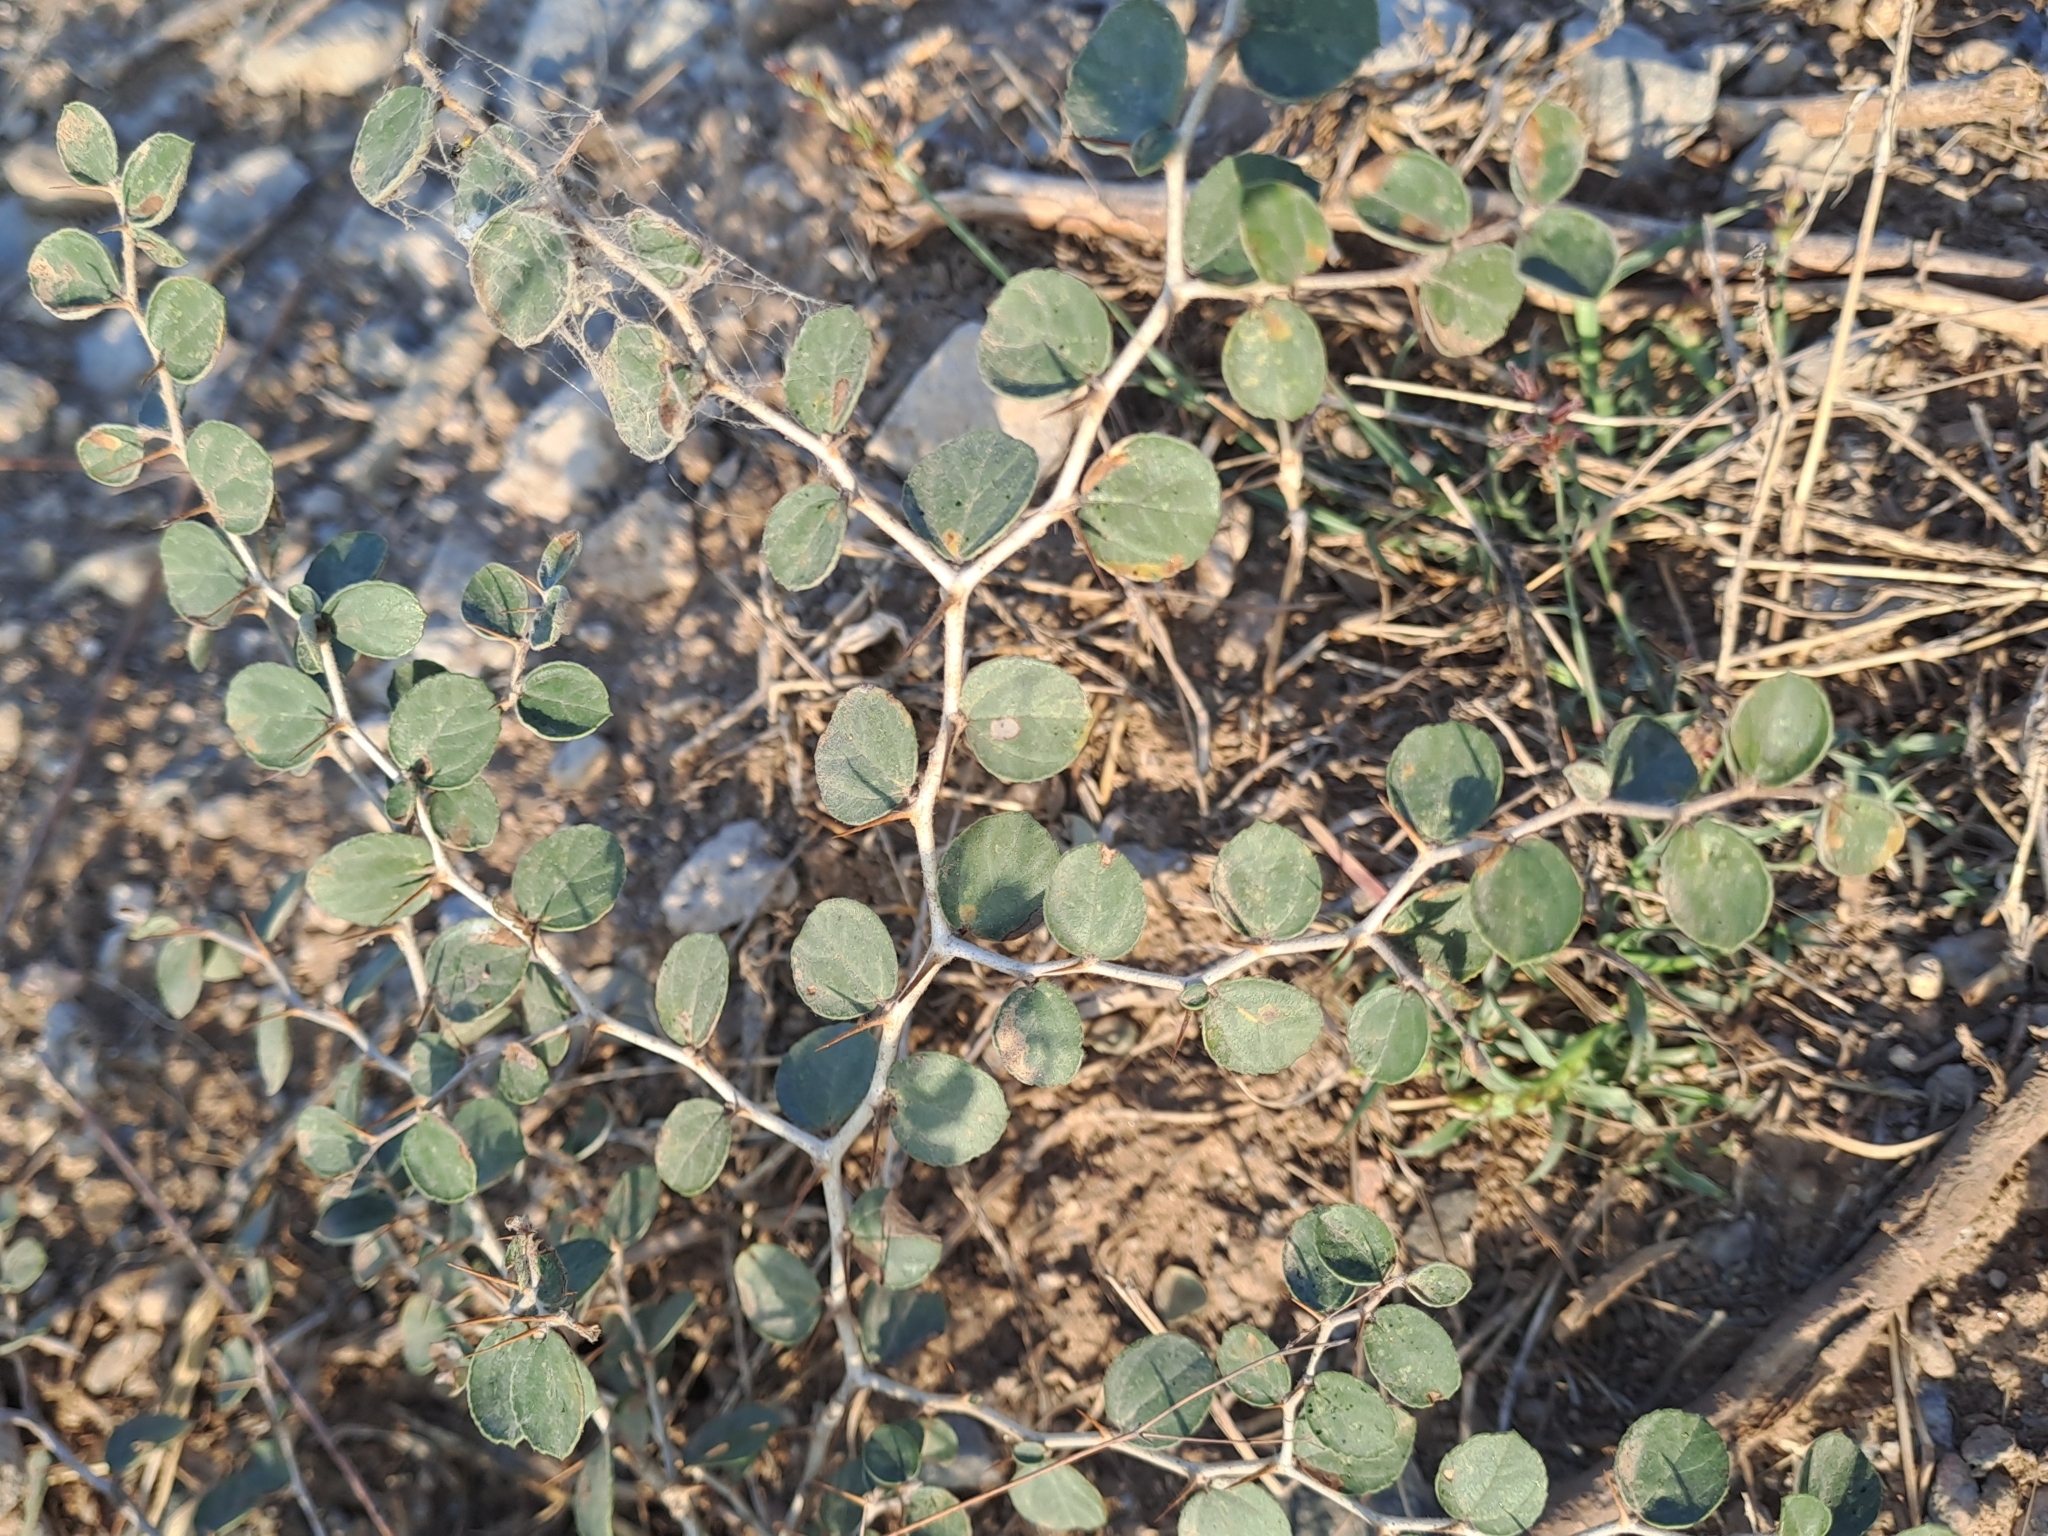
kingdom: Plantae
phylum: Tracheophyta
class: Magnoliopsida
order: Rosales
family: Rhamnaceae
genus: Ziziphus
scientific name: Ziziphus nummularia
